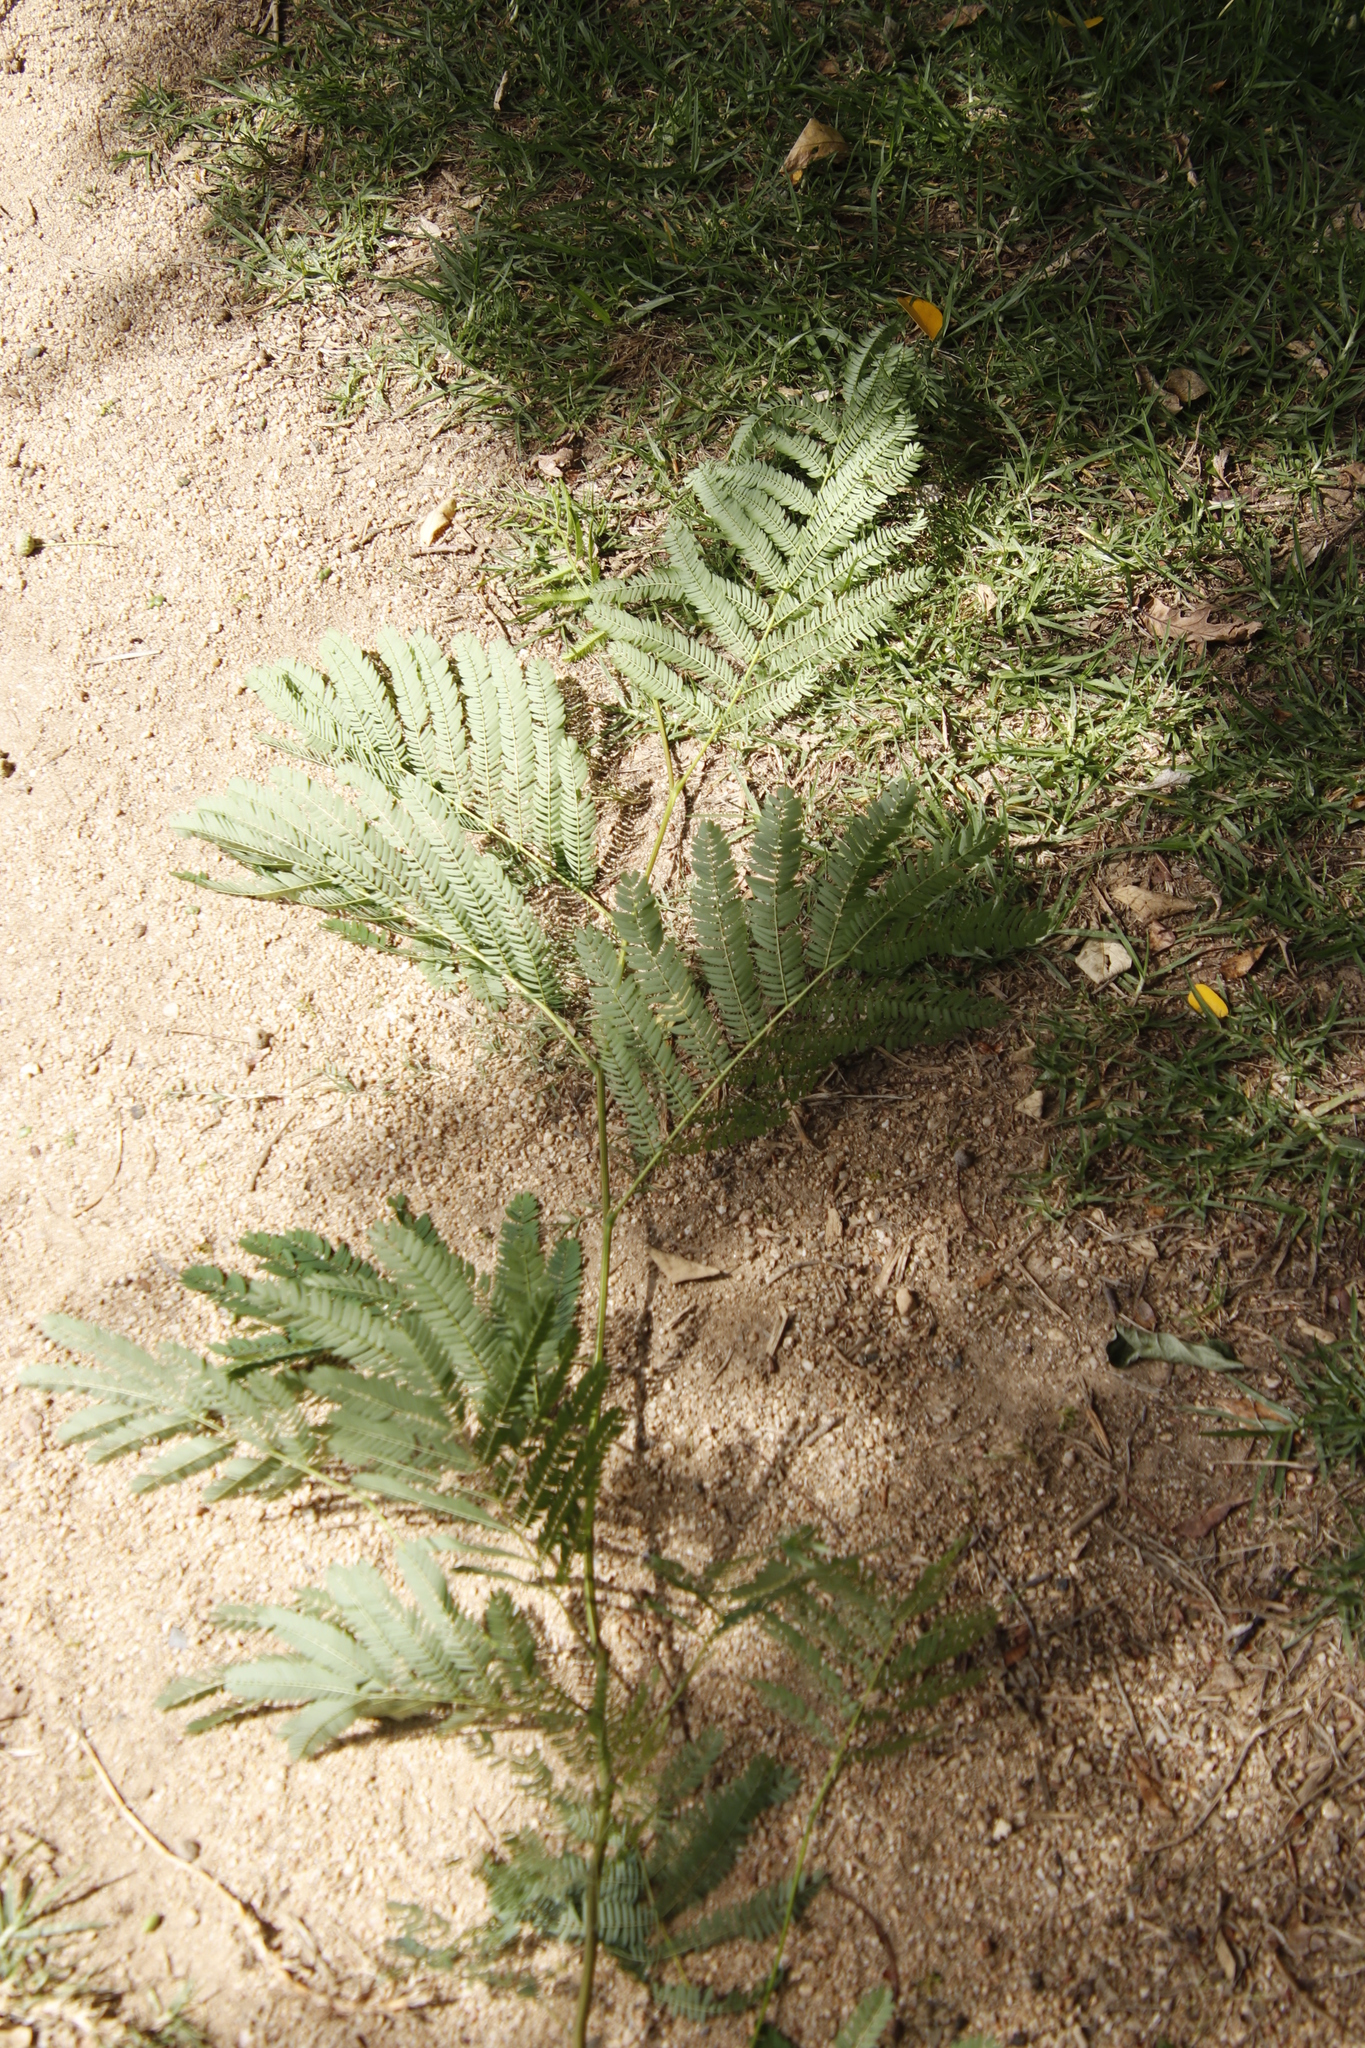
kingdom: Plantae
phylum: Tracheophyta
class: Magnoliopsida
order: Fabales
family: Fabaceae
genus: Paraserianthes
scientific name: Paraserianthes lophantha
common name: Plume albizia
